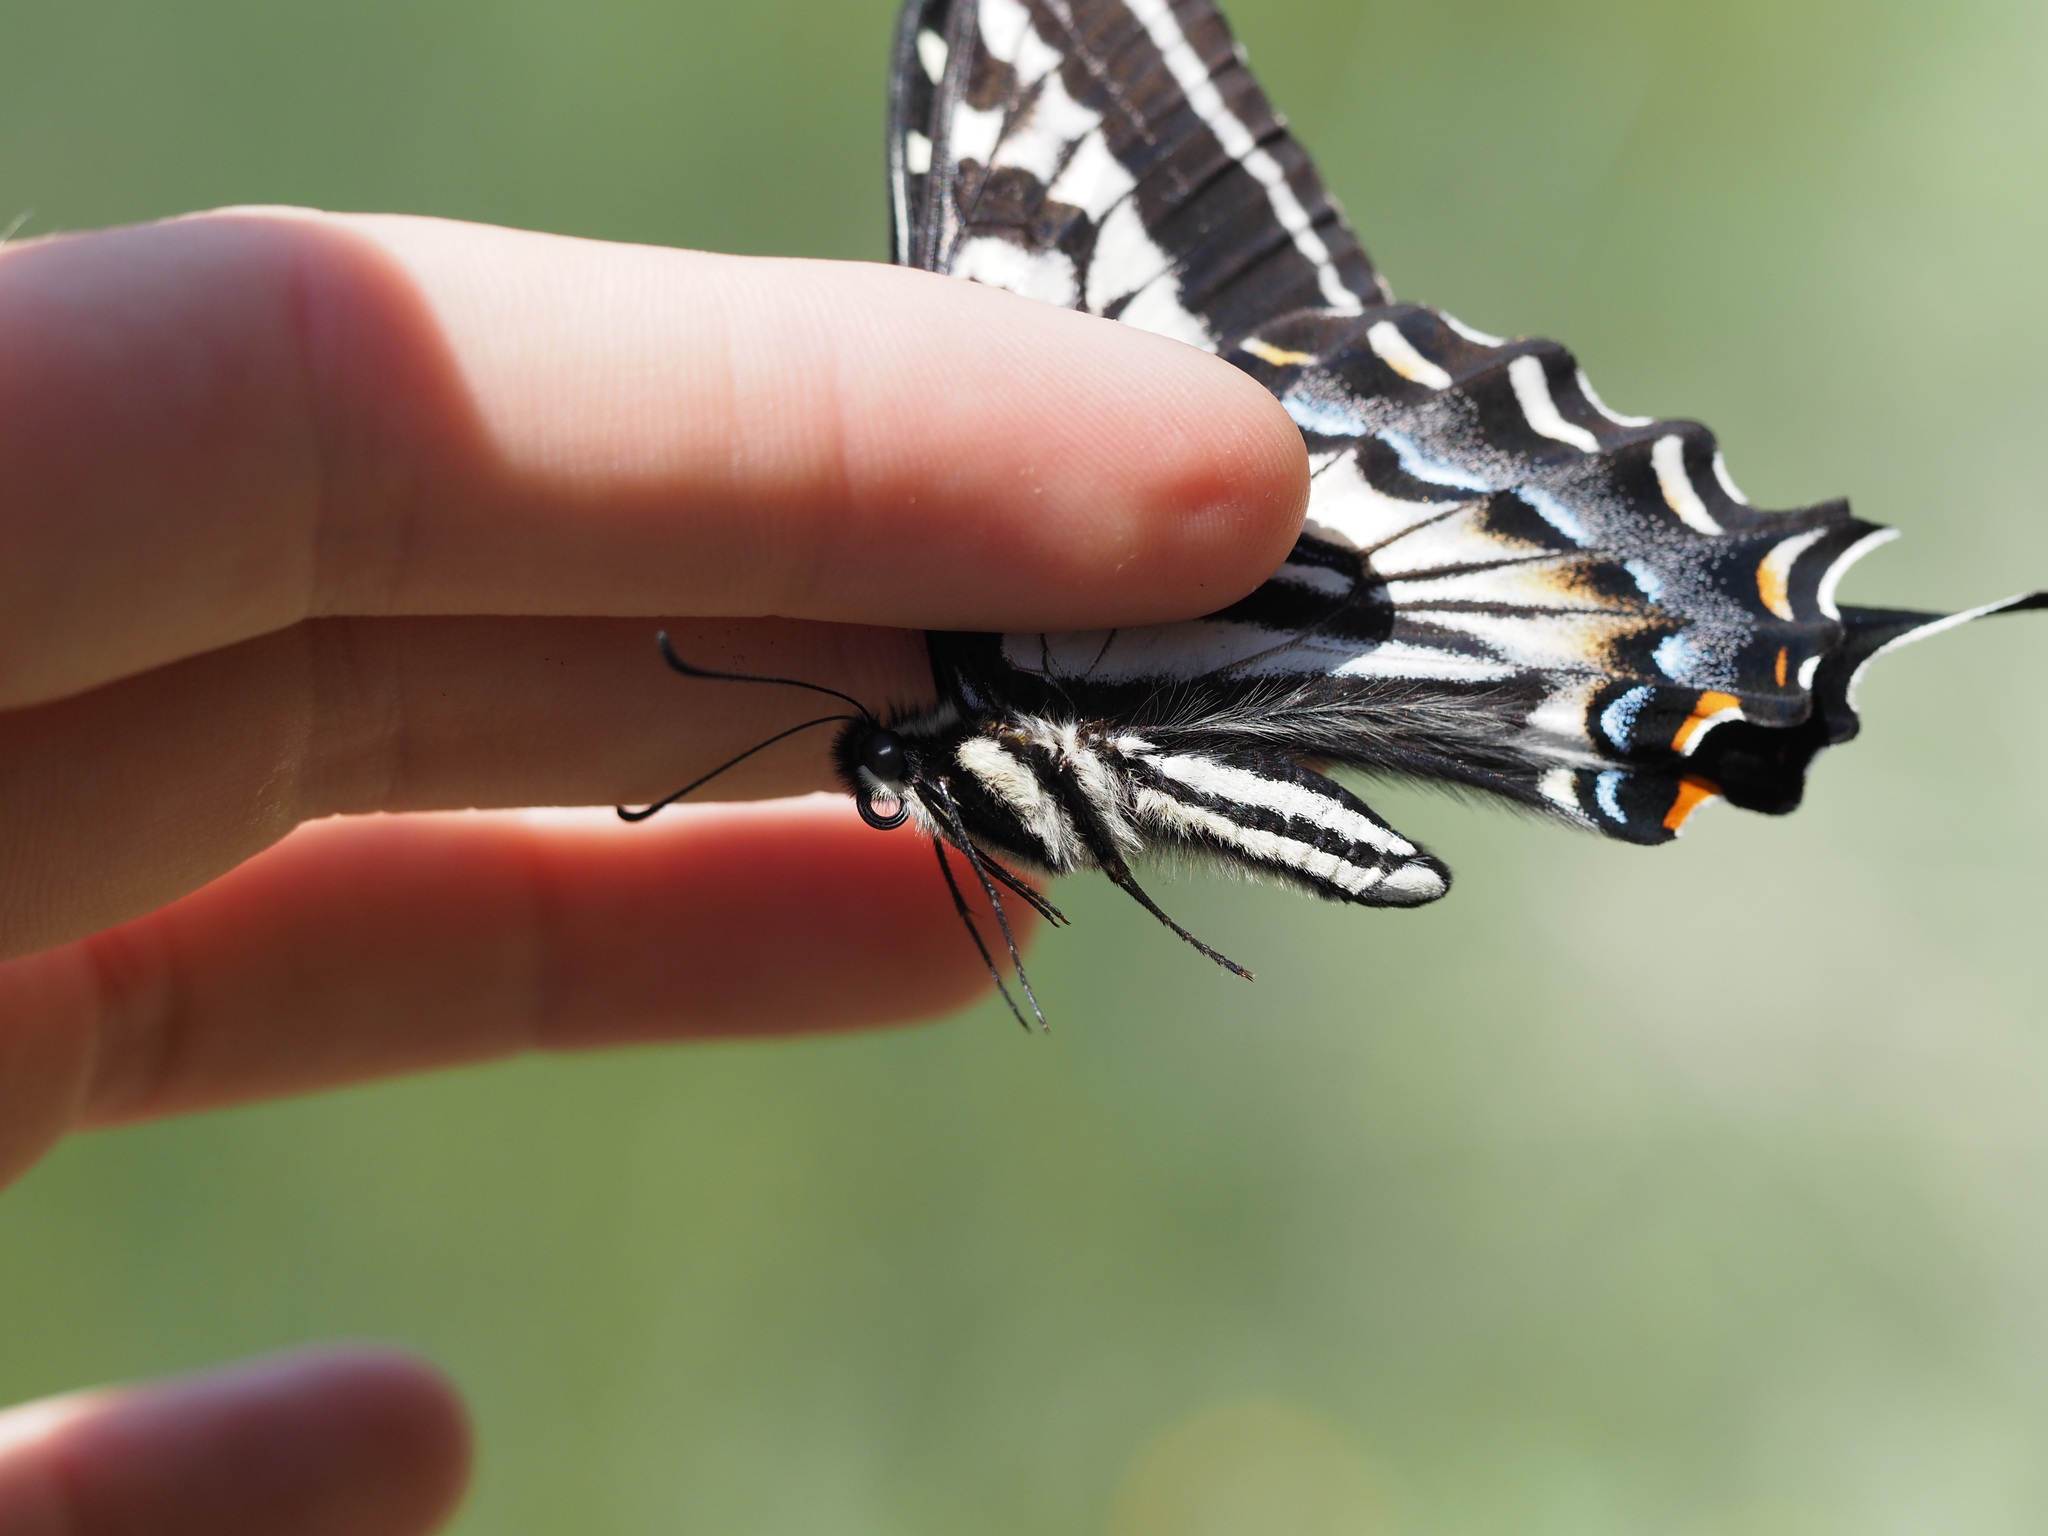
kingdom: Animalia
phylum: Arthropoda
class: Insecta
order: Lepidoptera
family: Papilionidae
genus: Papilio
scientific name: Papilio eurymedon
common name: Pale tiger swallowtail
